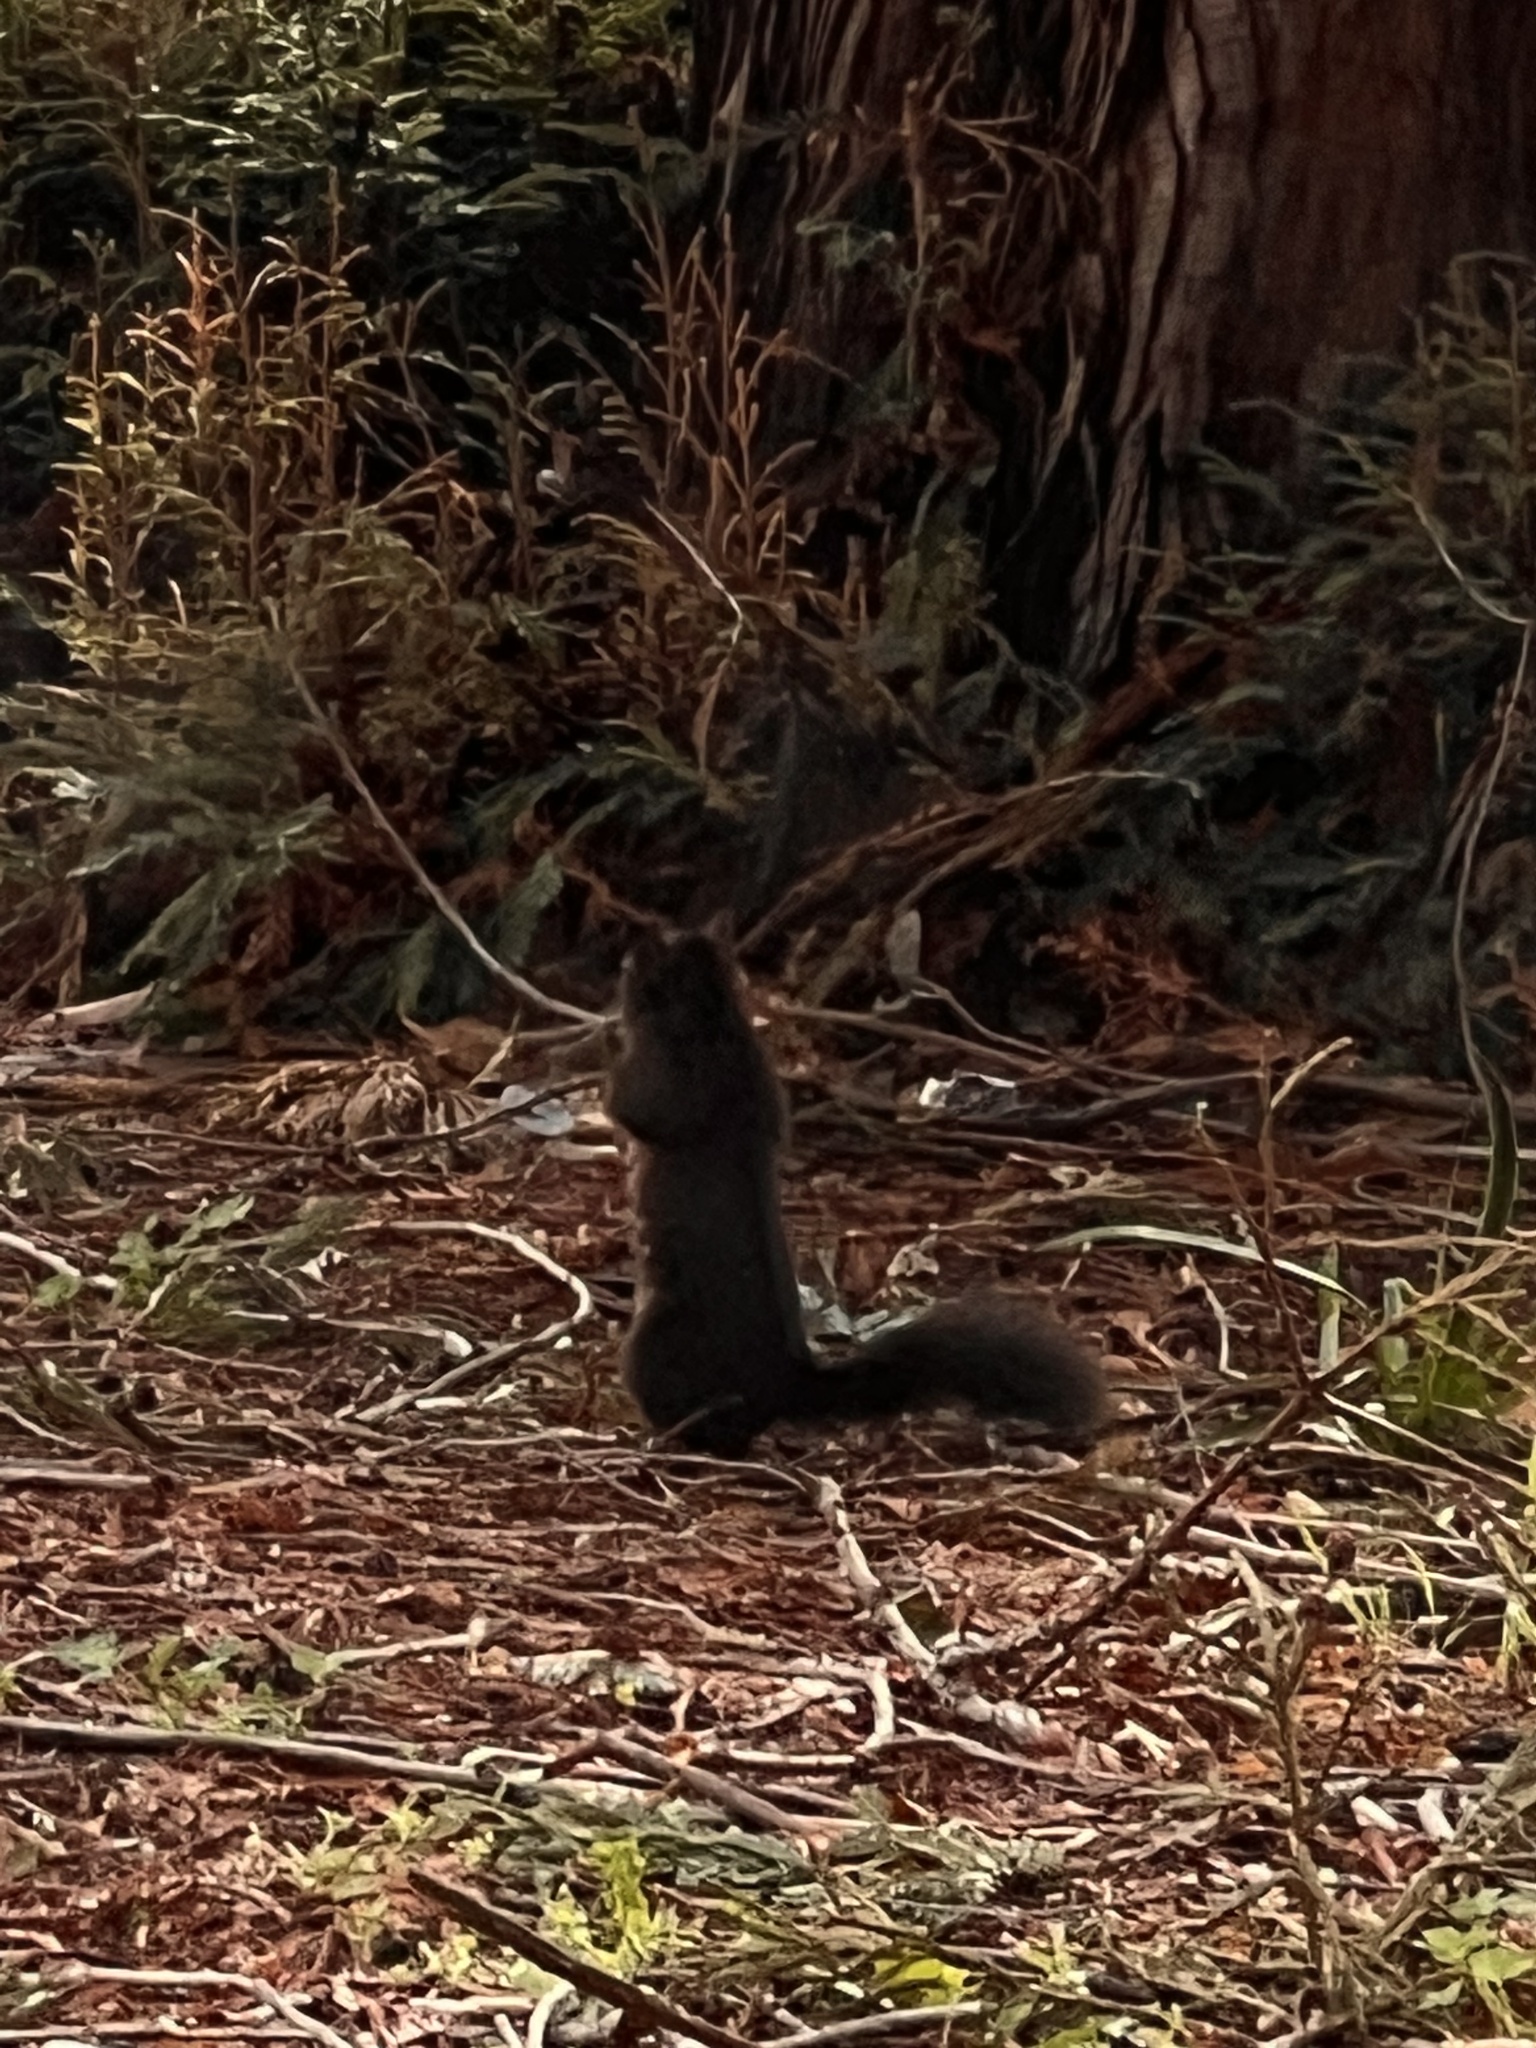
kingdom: Animalia
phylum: Chordata
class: Mammalia
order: Rodentia
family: Sciuridae
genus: Sciurus
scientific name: Sciurus carolinensis
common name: Eastern gray squirrel
